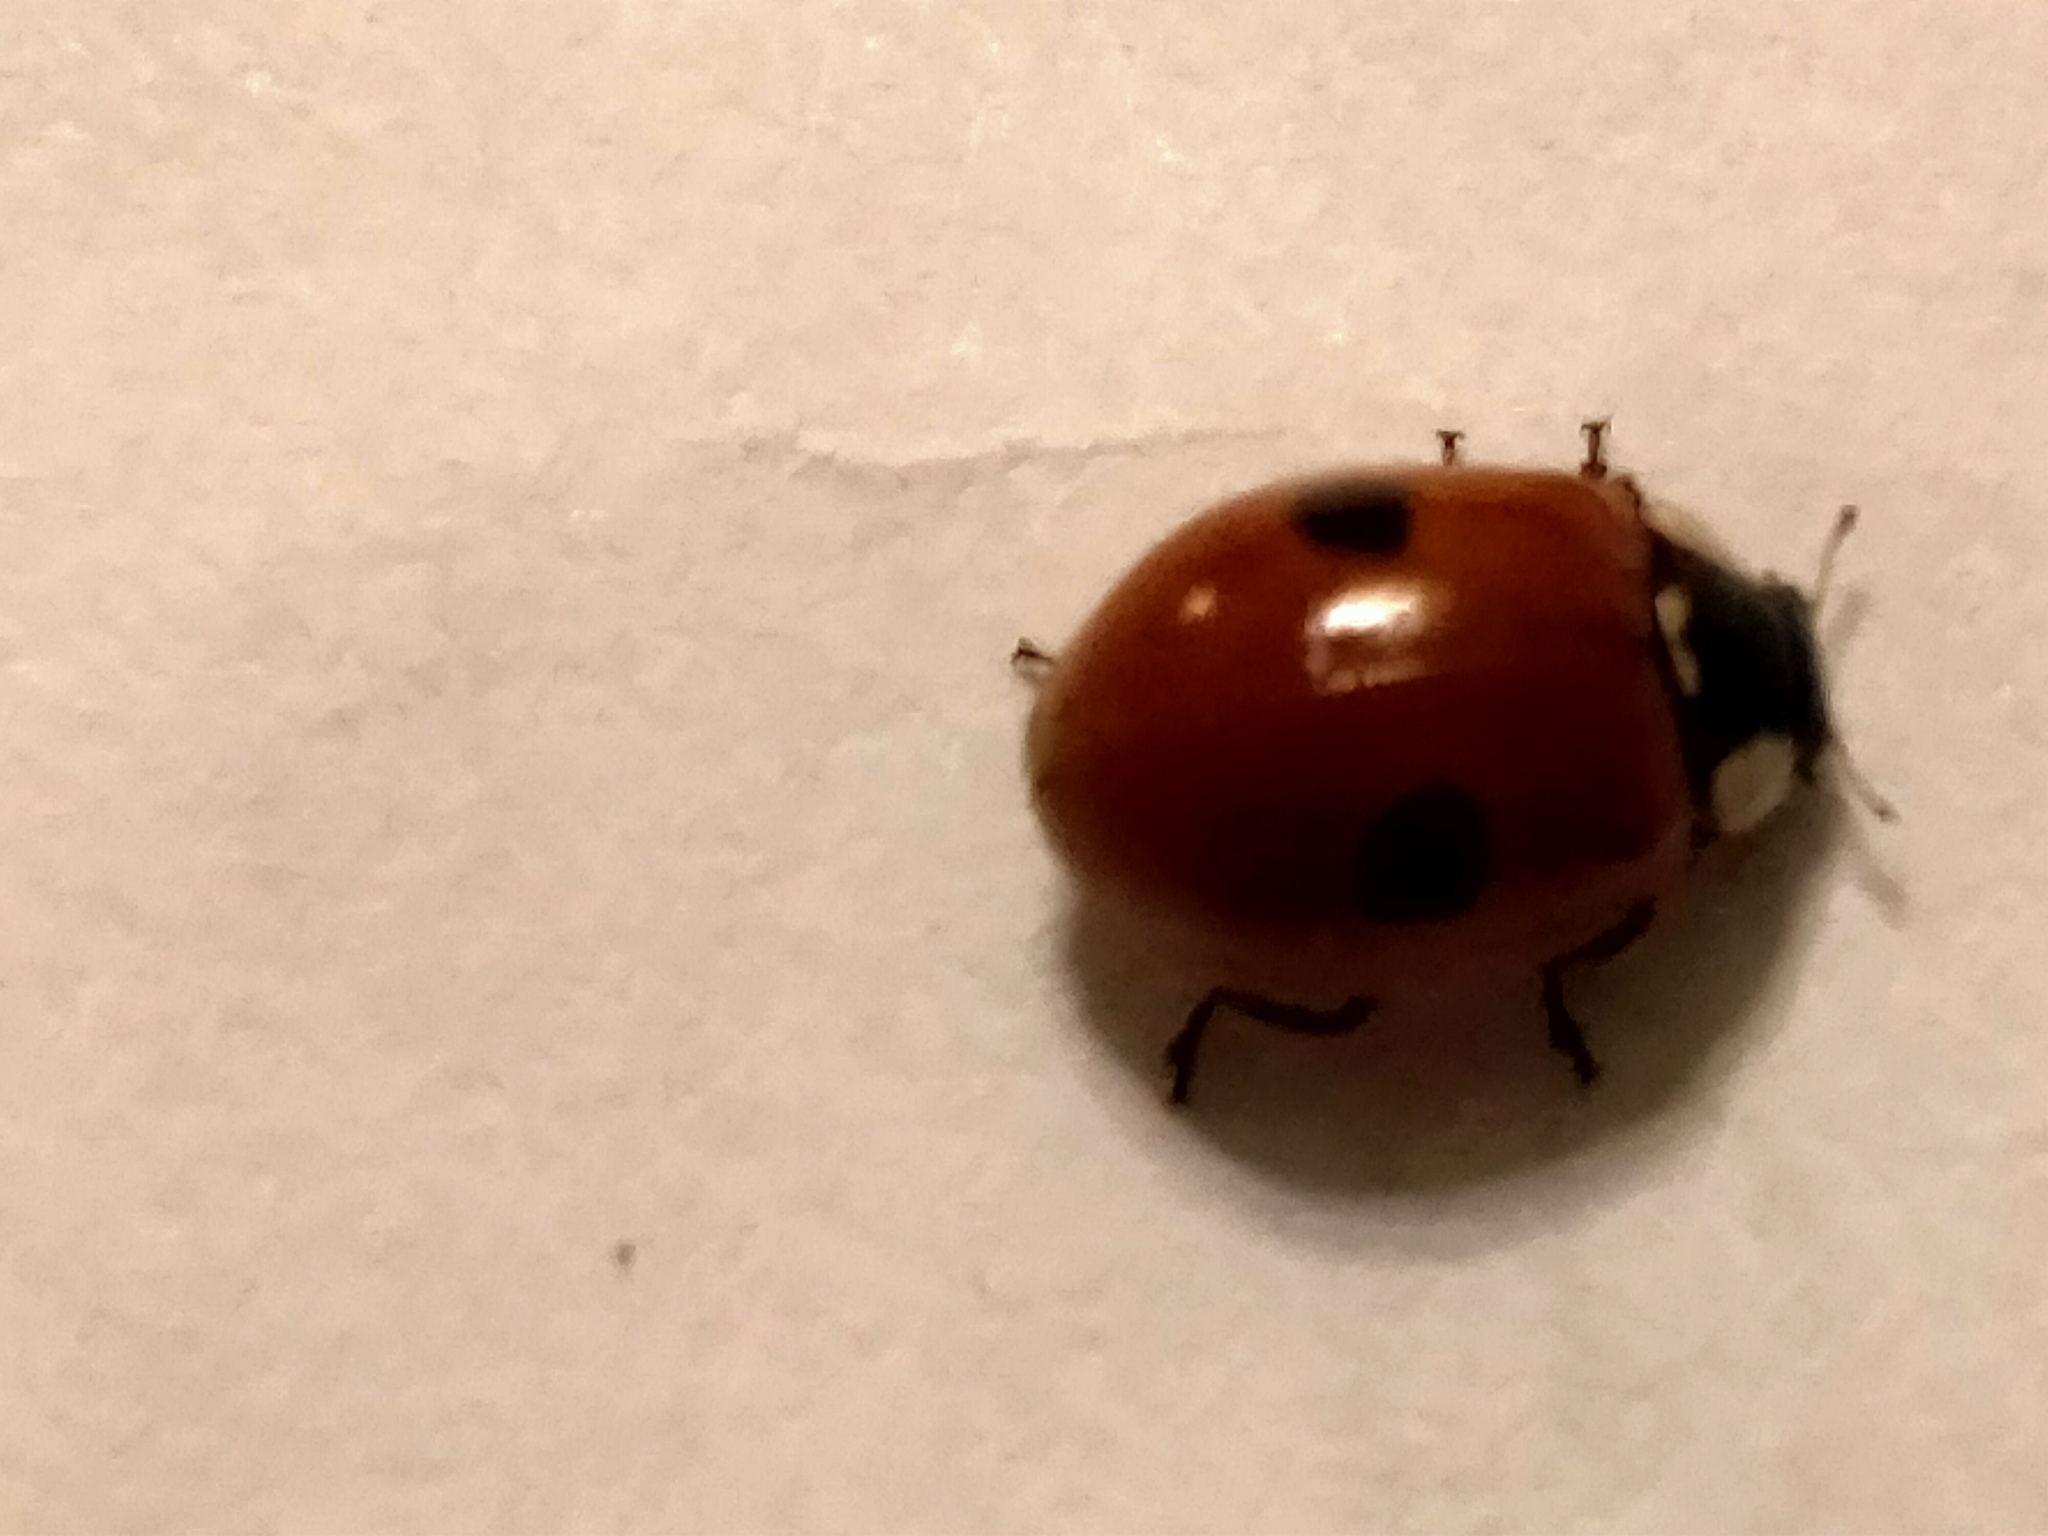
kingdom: Animalia
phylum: Arthropoda
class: Insecta
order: Coleoptera
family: Coccinellidae
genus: Adalia
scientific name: Adalia bipunctata
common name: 2-spot ladybird
